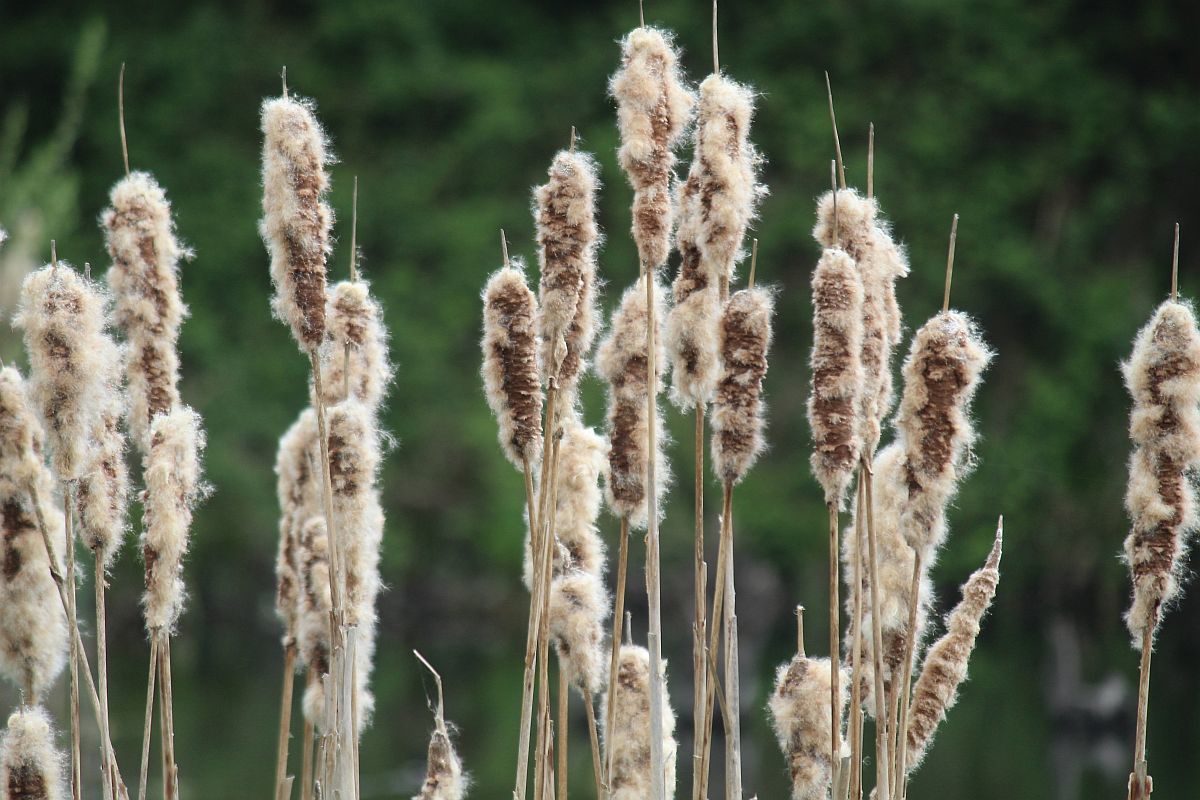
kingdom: Plantae
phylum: Tracheophyta
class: Liliopsida
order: Poales
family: Typhaceae
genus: Typha
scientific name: Typha latifolia
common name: Broadleaf cattail
